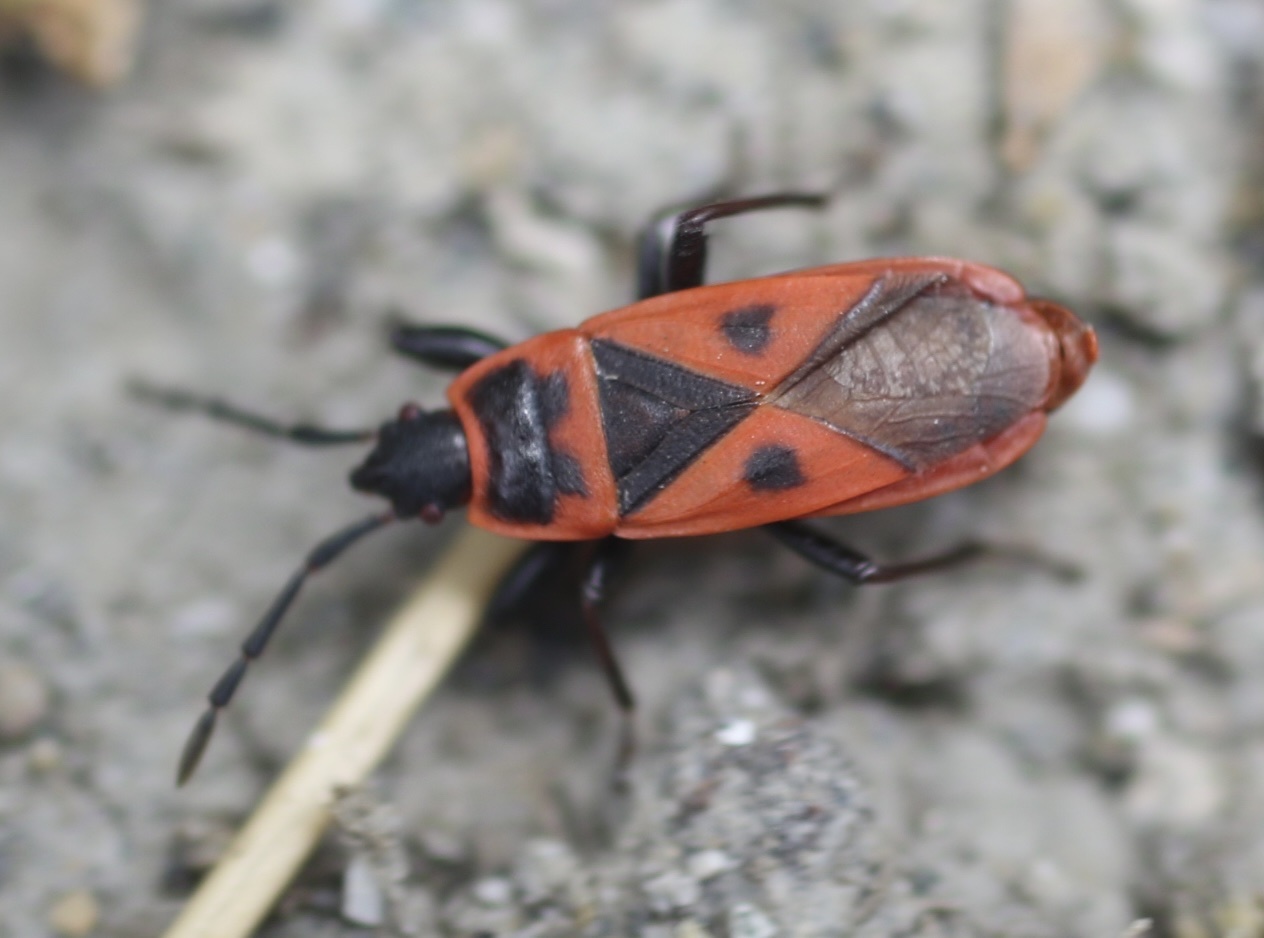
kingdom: Animalia
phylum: Arthropoda
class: Insecta
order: Hemiptera
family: Pyrrhocoridae
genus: Scantius
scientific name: Scantius aegyptius
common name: Red bug
